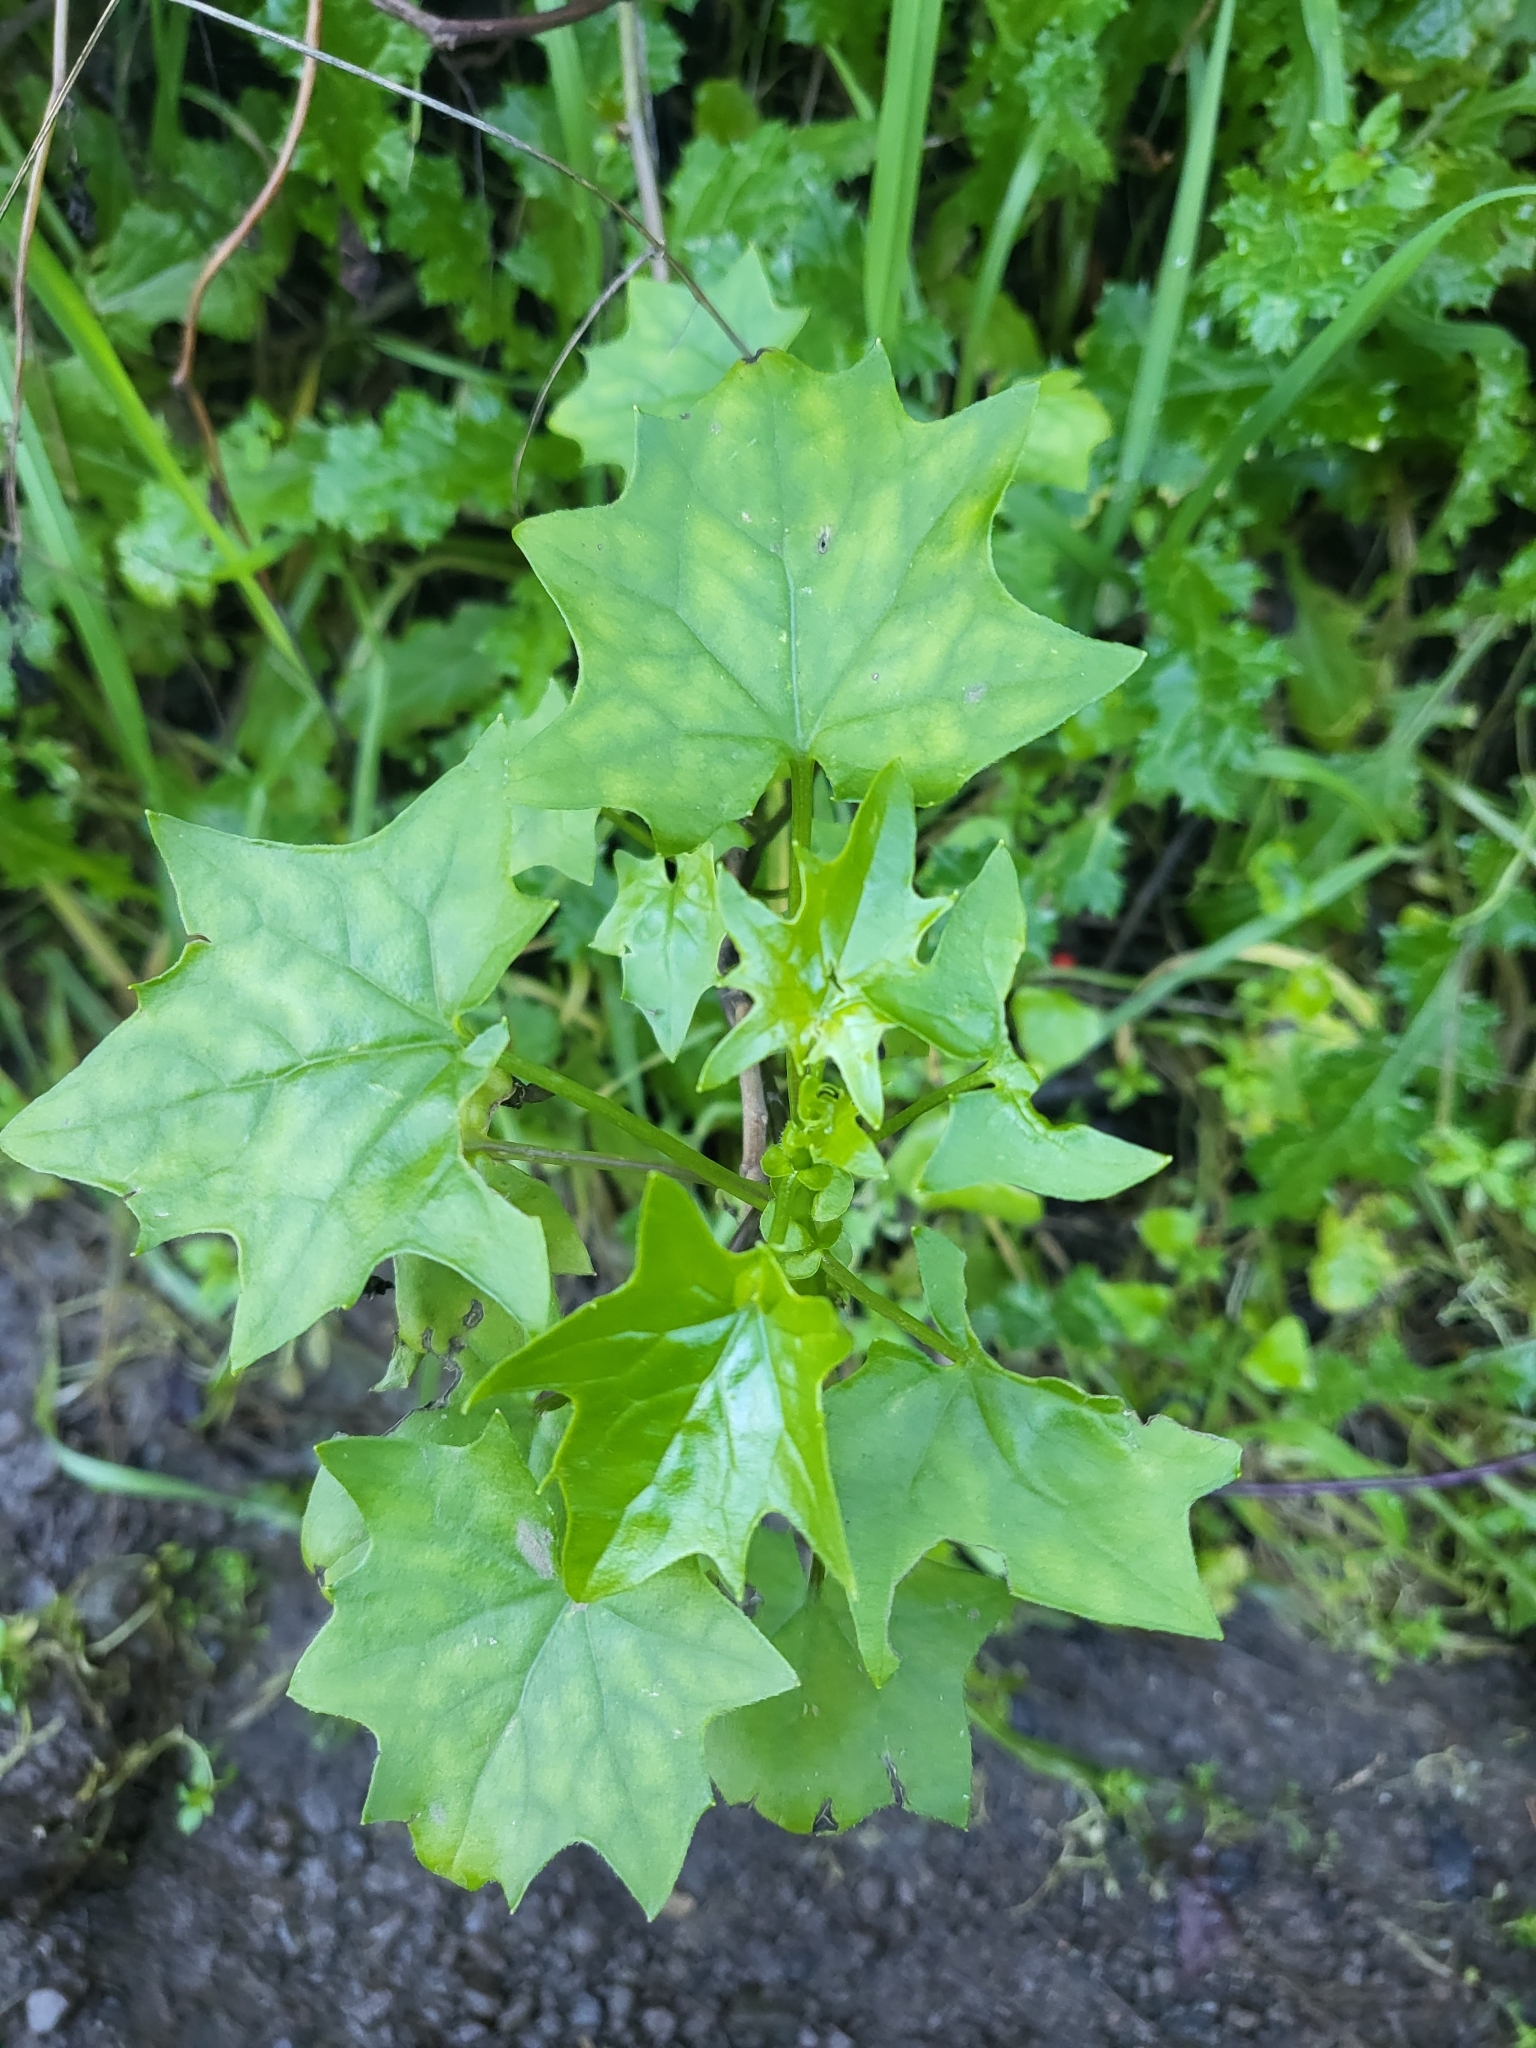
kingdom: Plantae
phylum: Tracheophyta
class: Magnoliopsida
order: Asterales
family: Asteraceae
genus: Delairea
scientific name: Delairea odorata
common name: Cape-ivy
